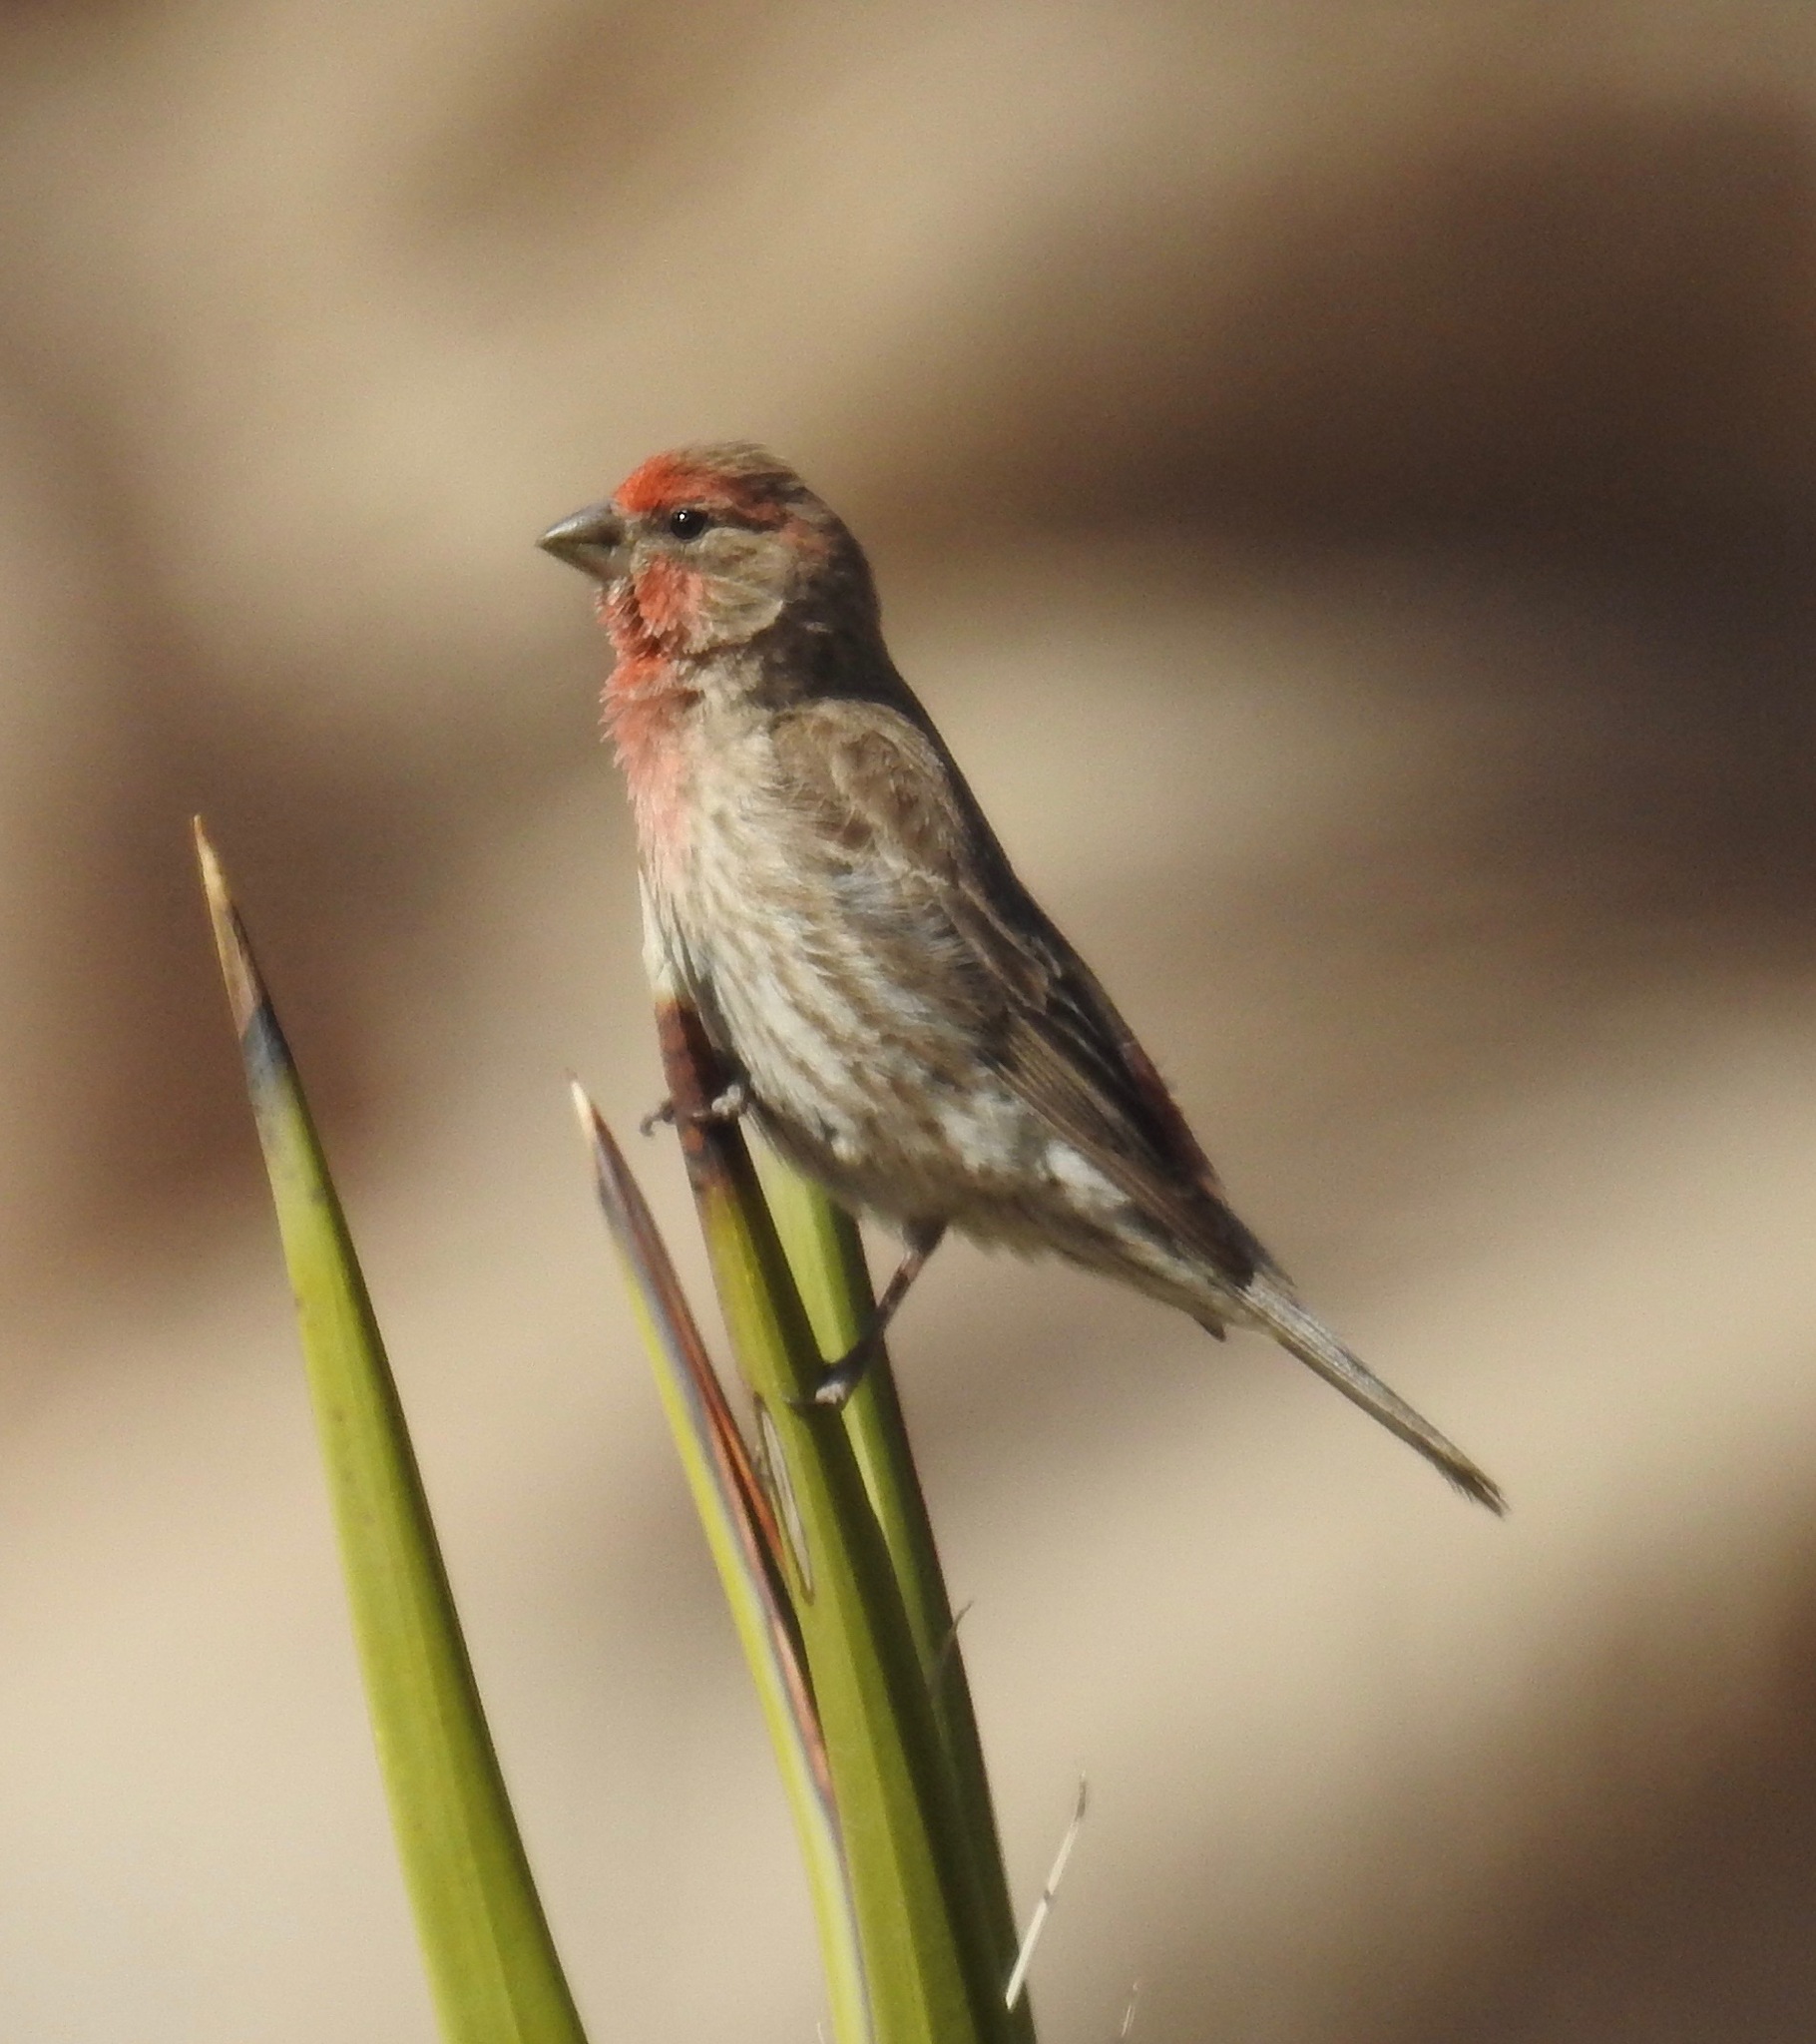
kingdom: Animalia
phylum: Chordata
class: Aves
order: Passeriformes
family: Fringillidae
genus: Haemorhous
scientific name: Haemorhous mexicanus
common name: House finch
